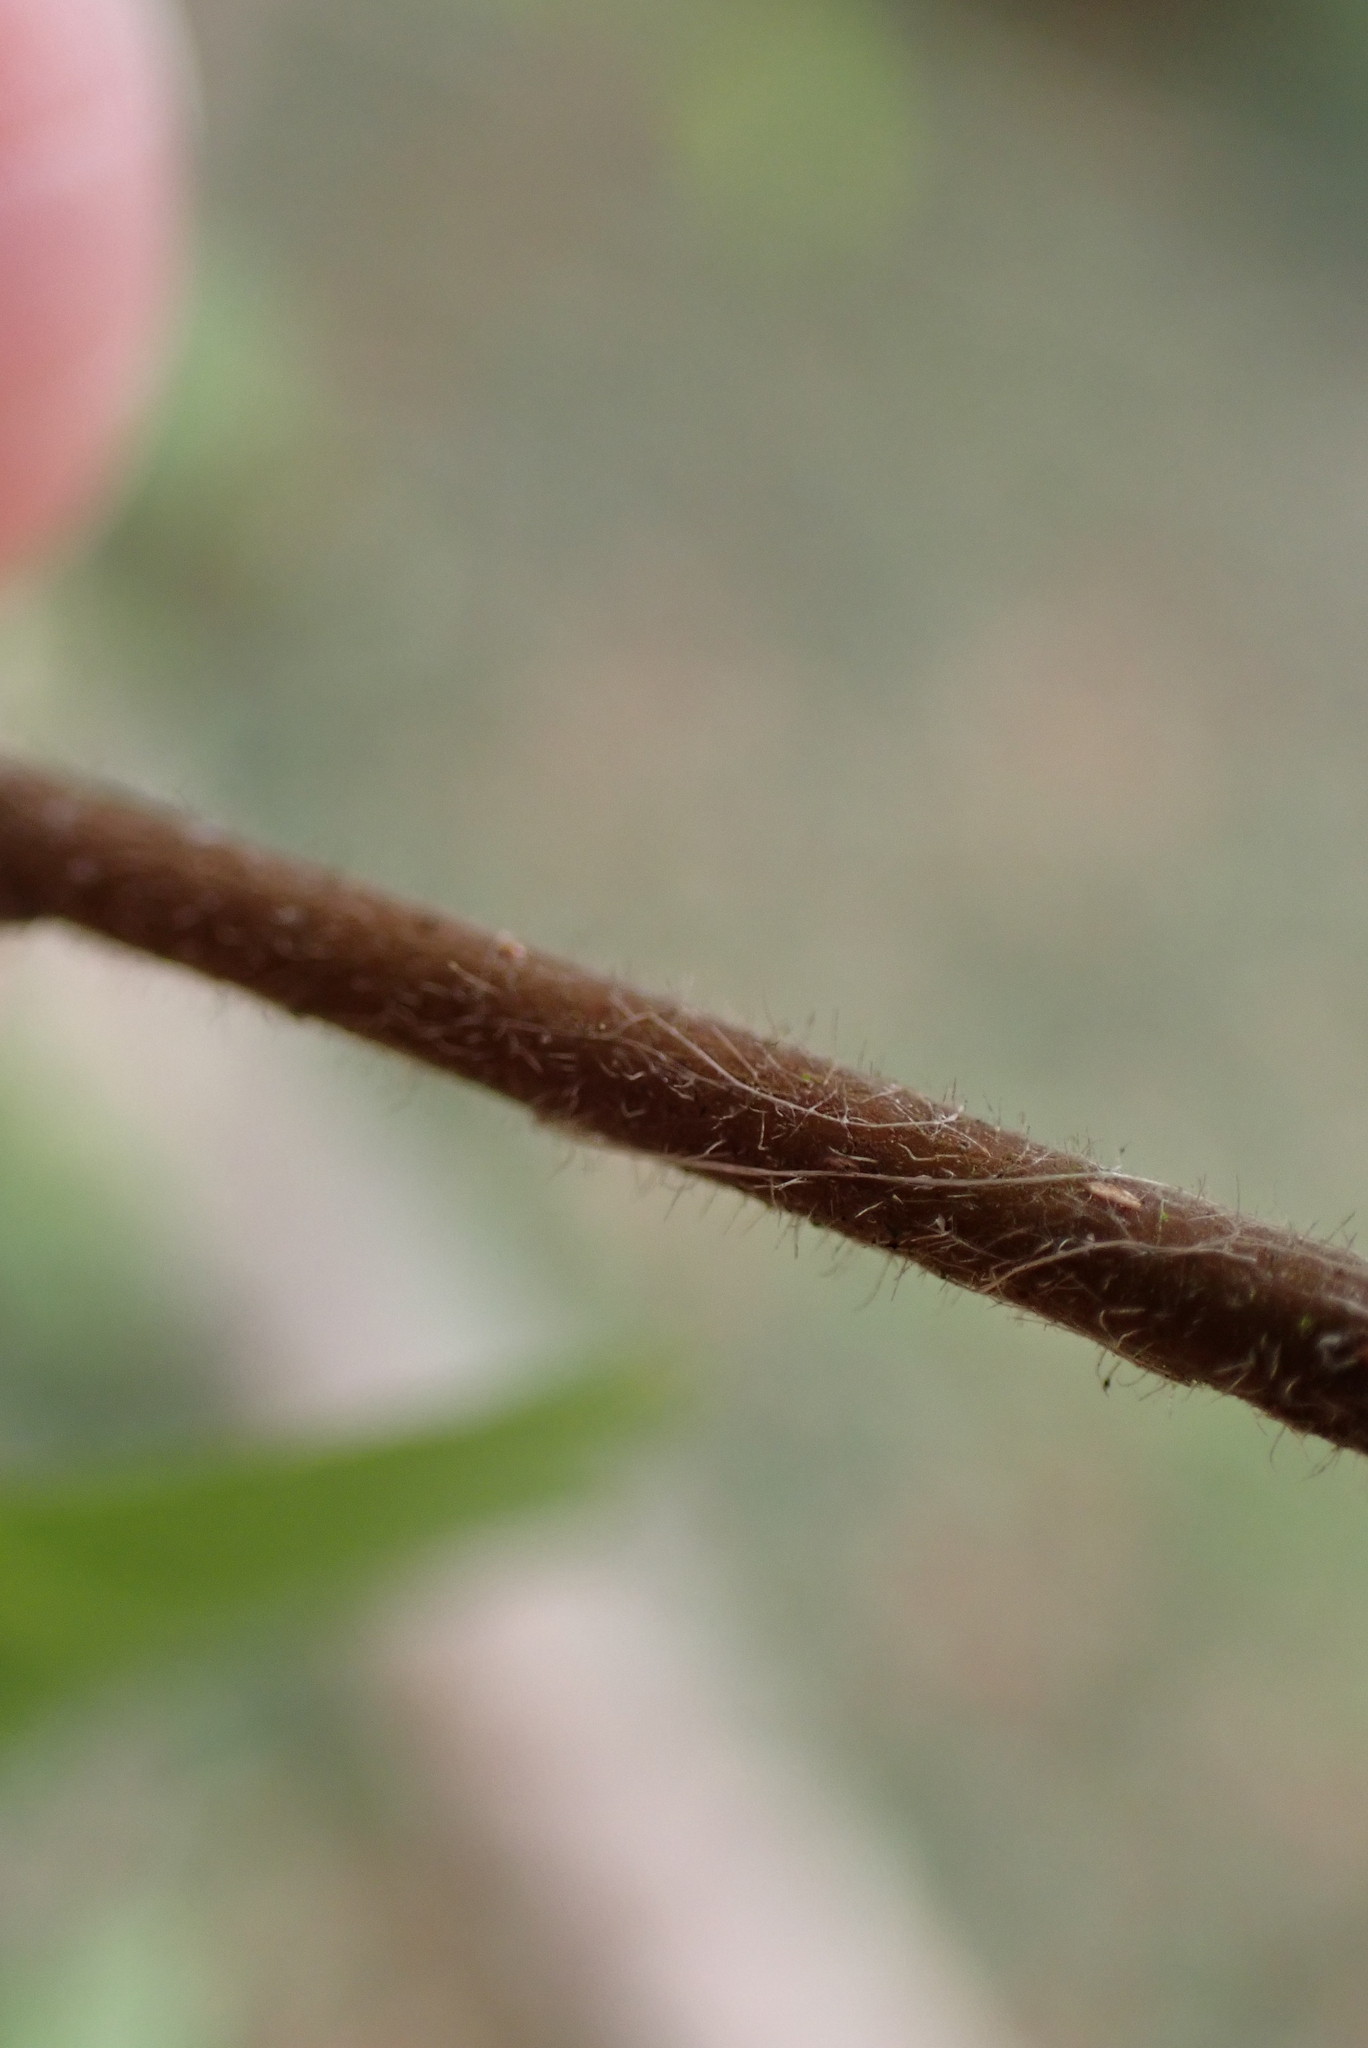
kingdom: Plantae
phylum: Tracheophyta
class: Magnoliopsida
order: Fagales
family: Betulaceae
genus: Betula
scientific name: Betula pubescens
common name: Downy birch
